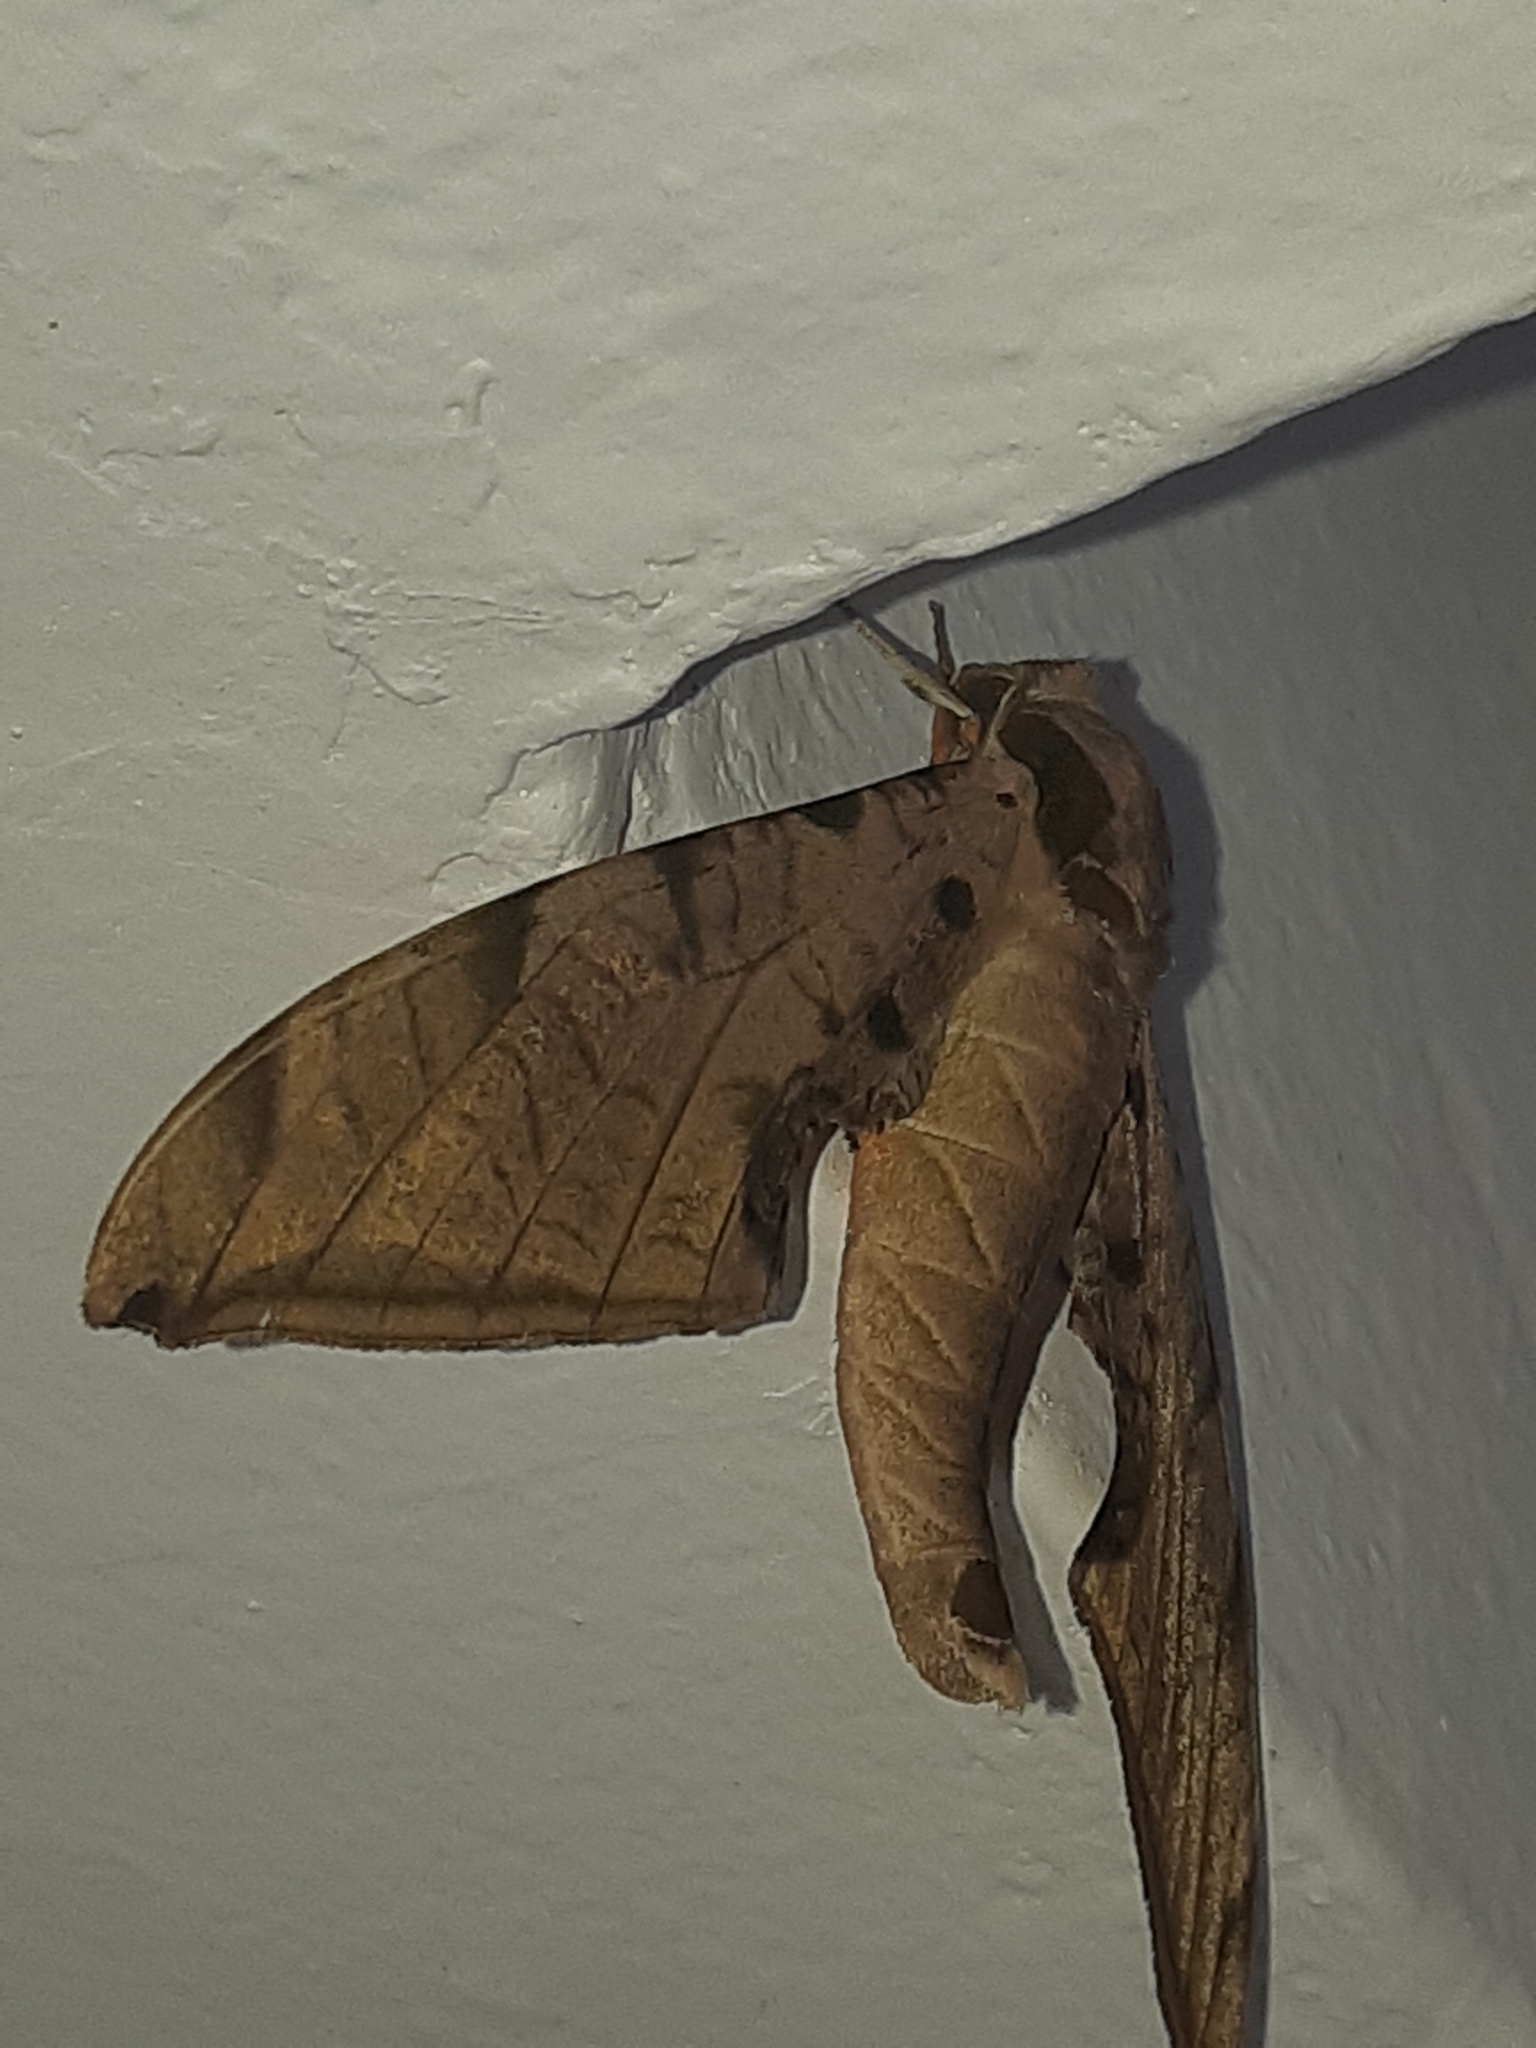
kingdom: Animalia
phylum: Arthropoda
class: Insecta
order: Lepidoptera
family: Sphingidae
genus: Protambulyx
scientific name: Protambulyx strigilis
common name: Streaked sphinx
